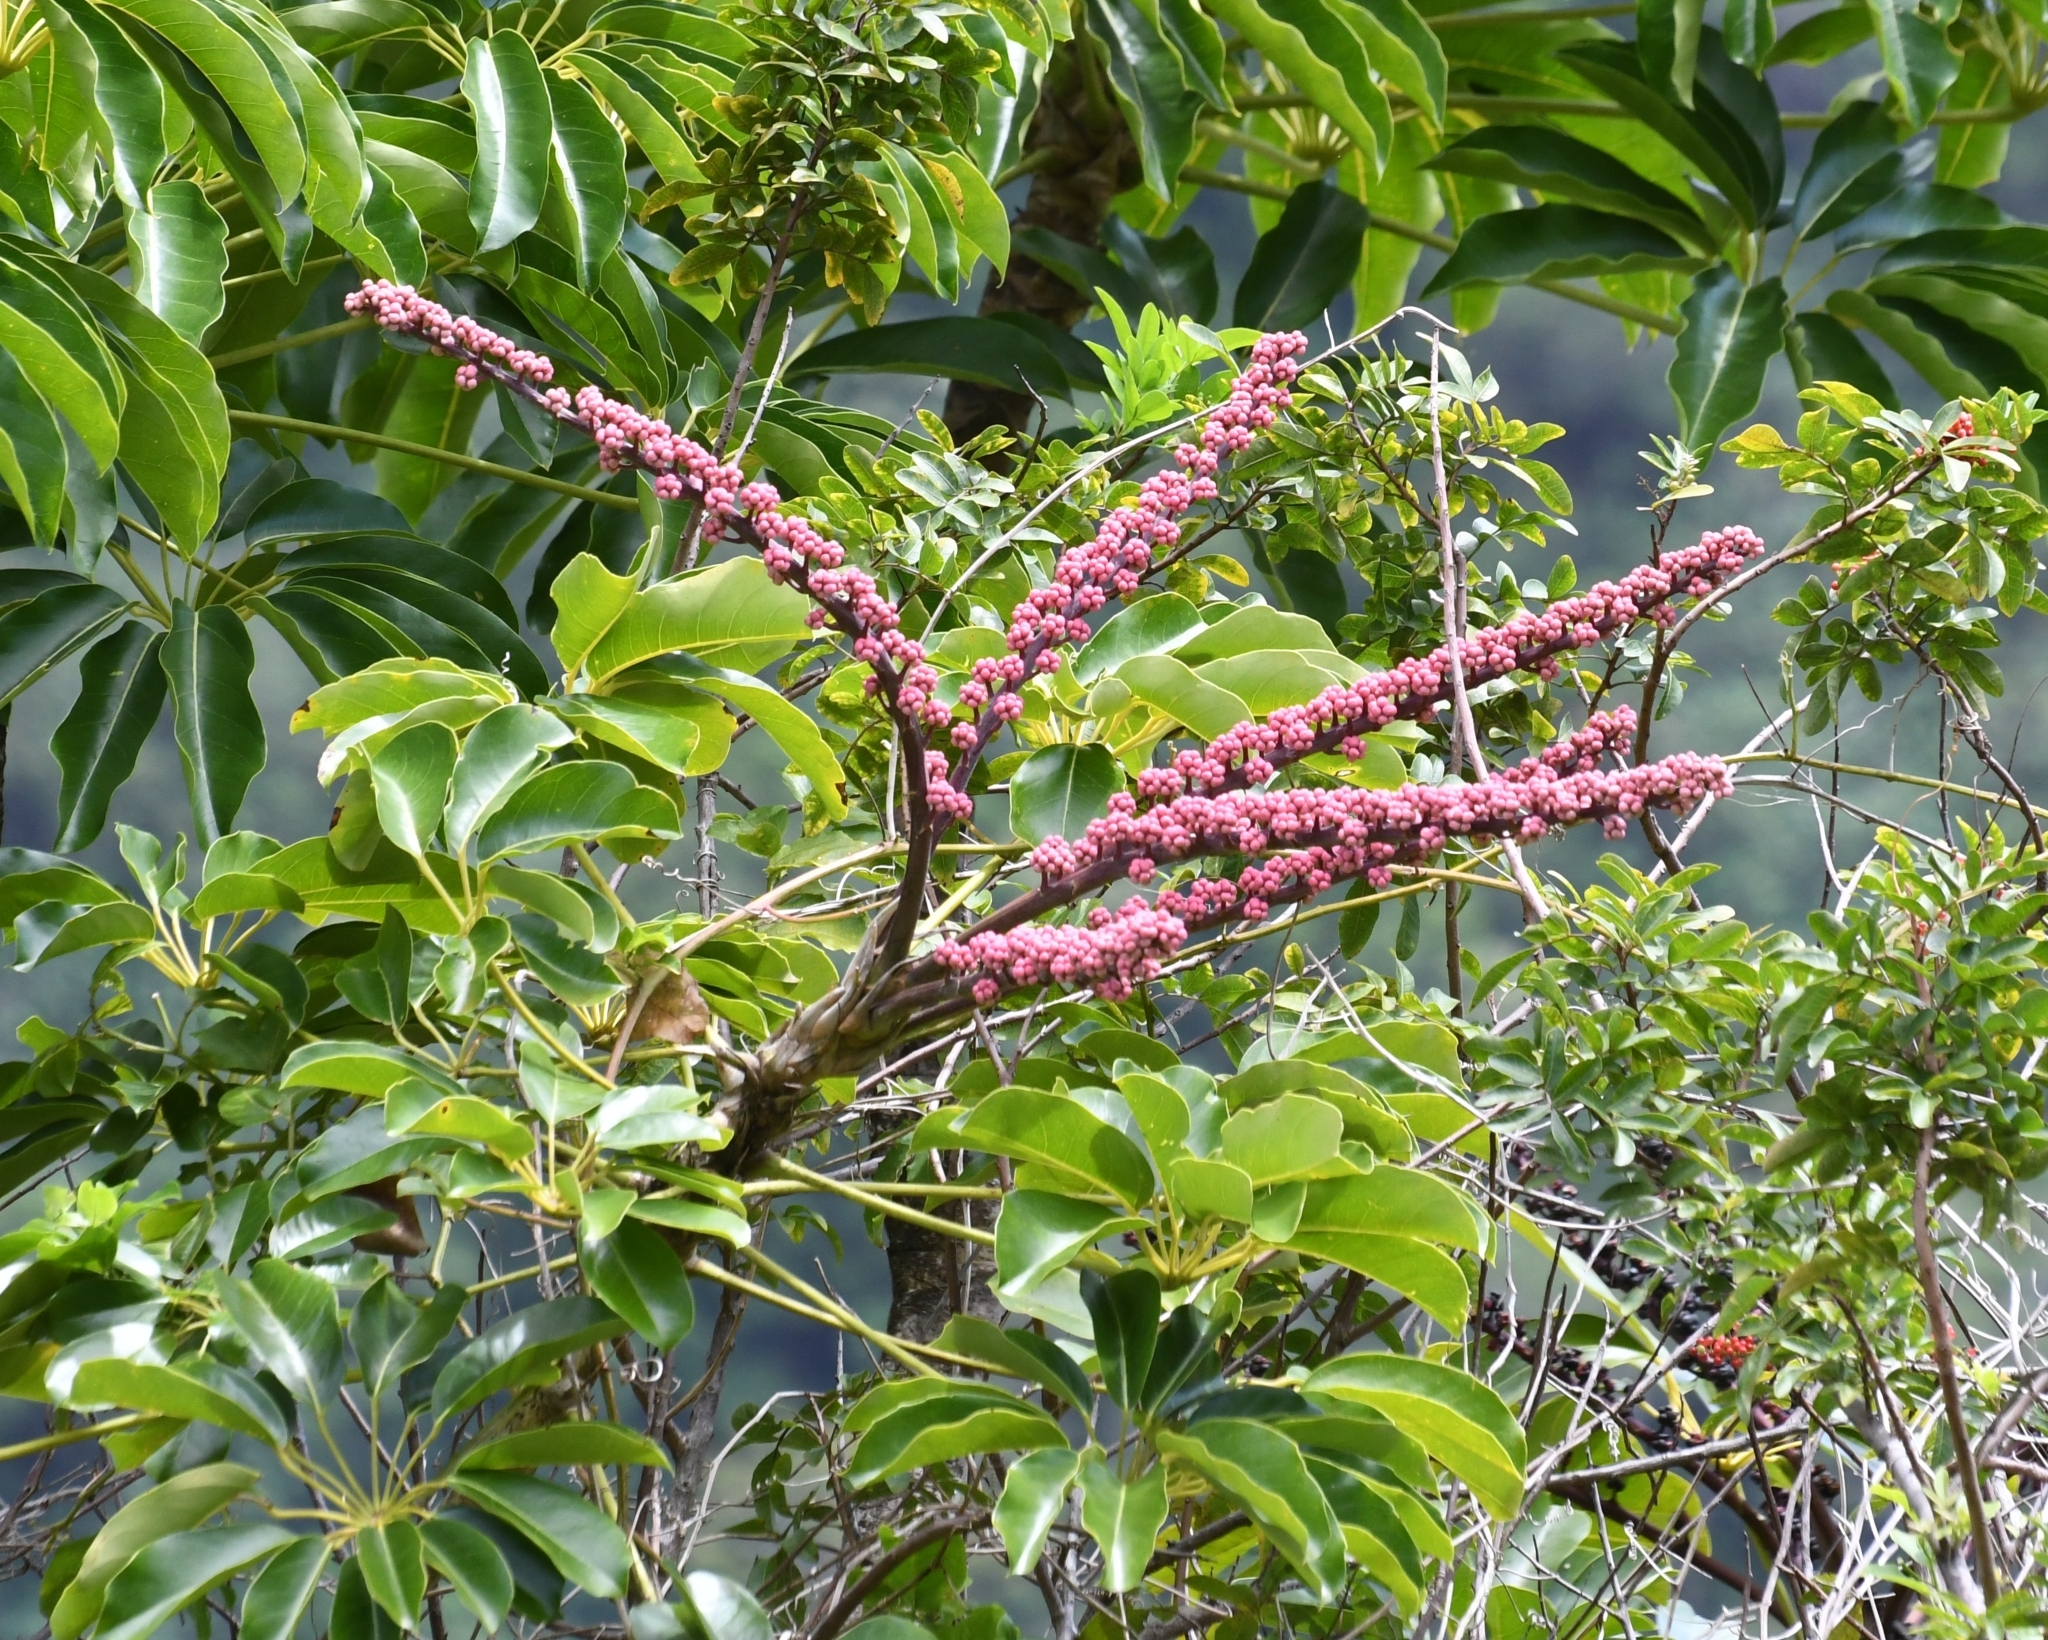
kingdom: Plantae
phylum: Tracheophyta
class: Magnoliopsida
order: Apiales
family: Araliaceae
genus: Heptapleurum
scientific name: Heptapleurum actinophyllum
